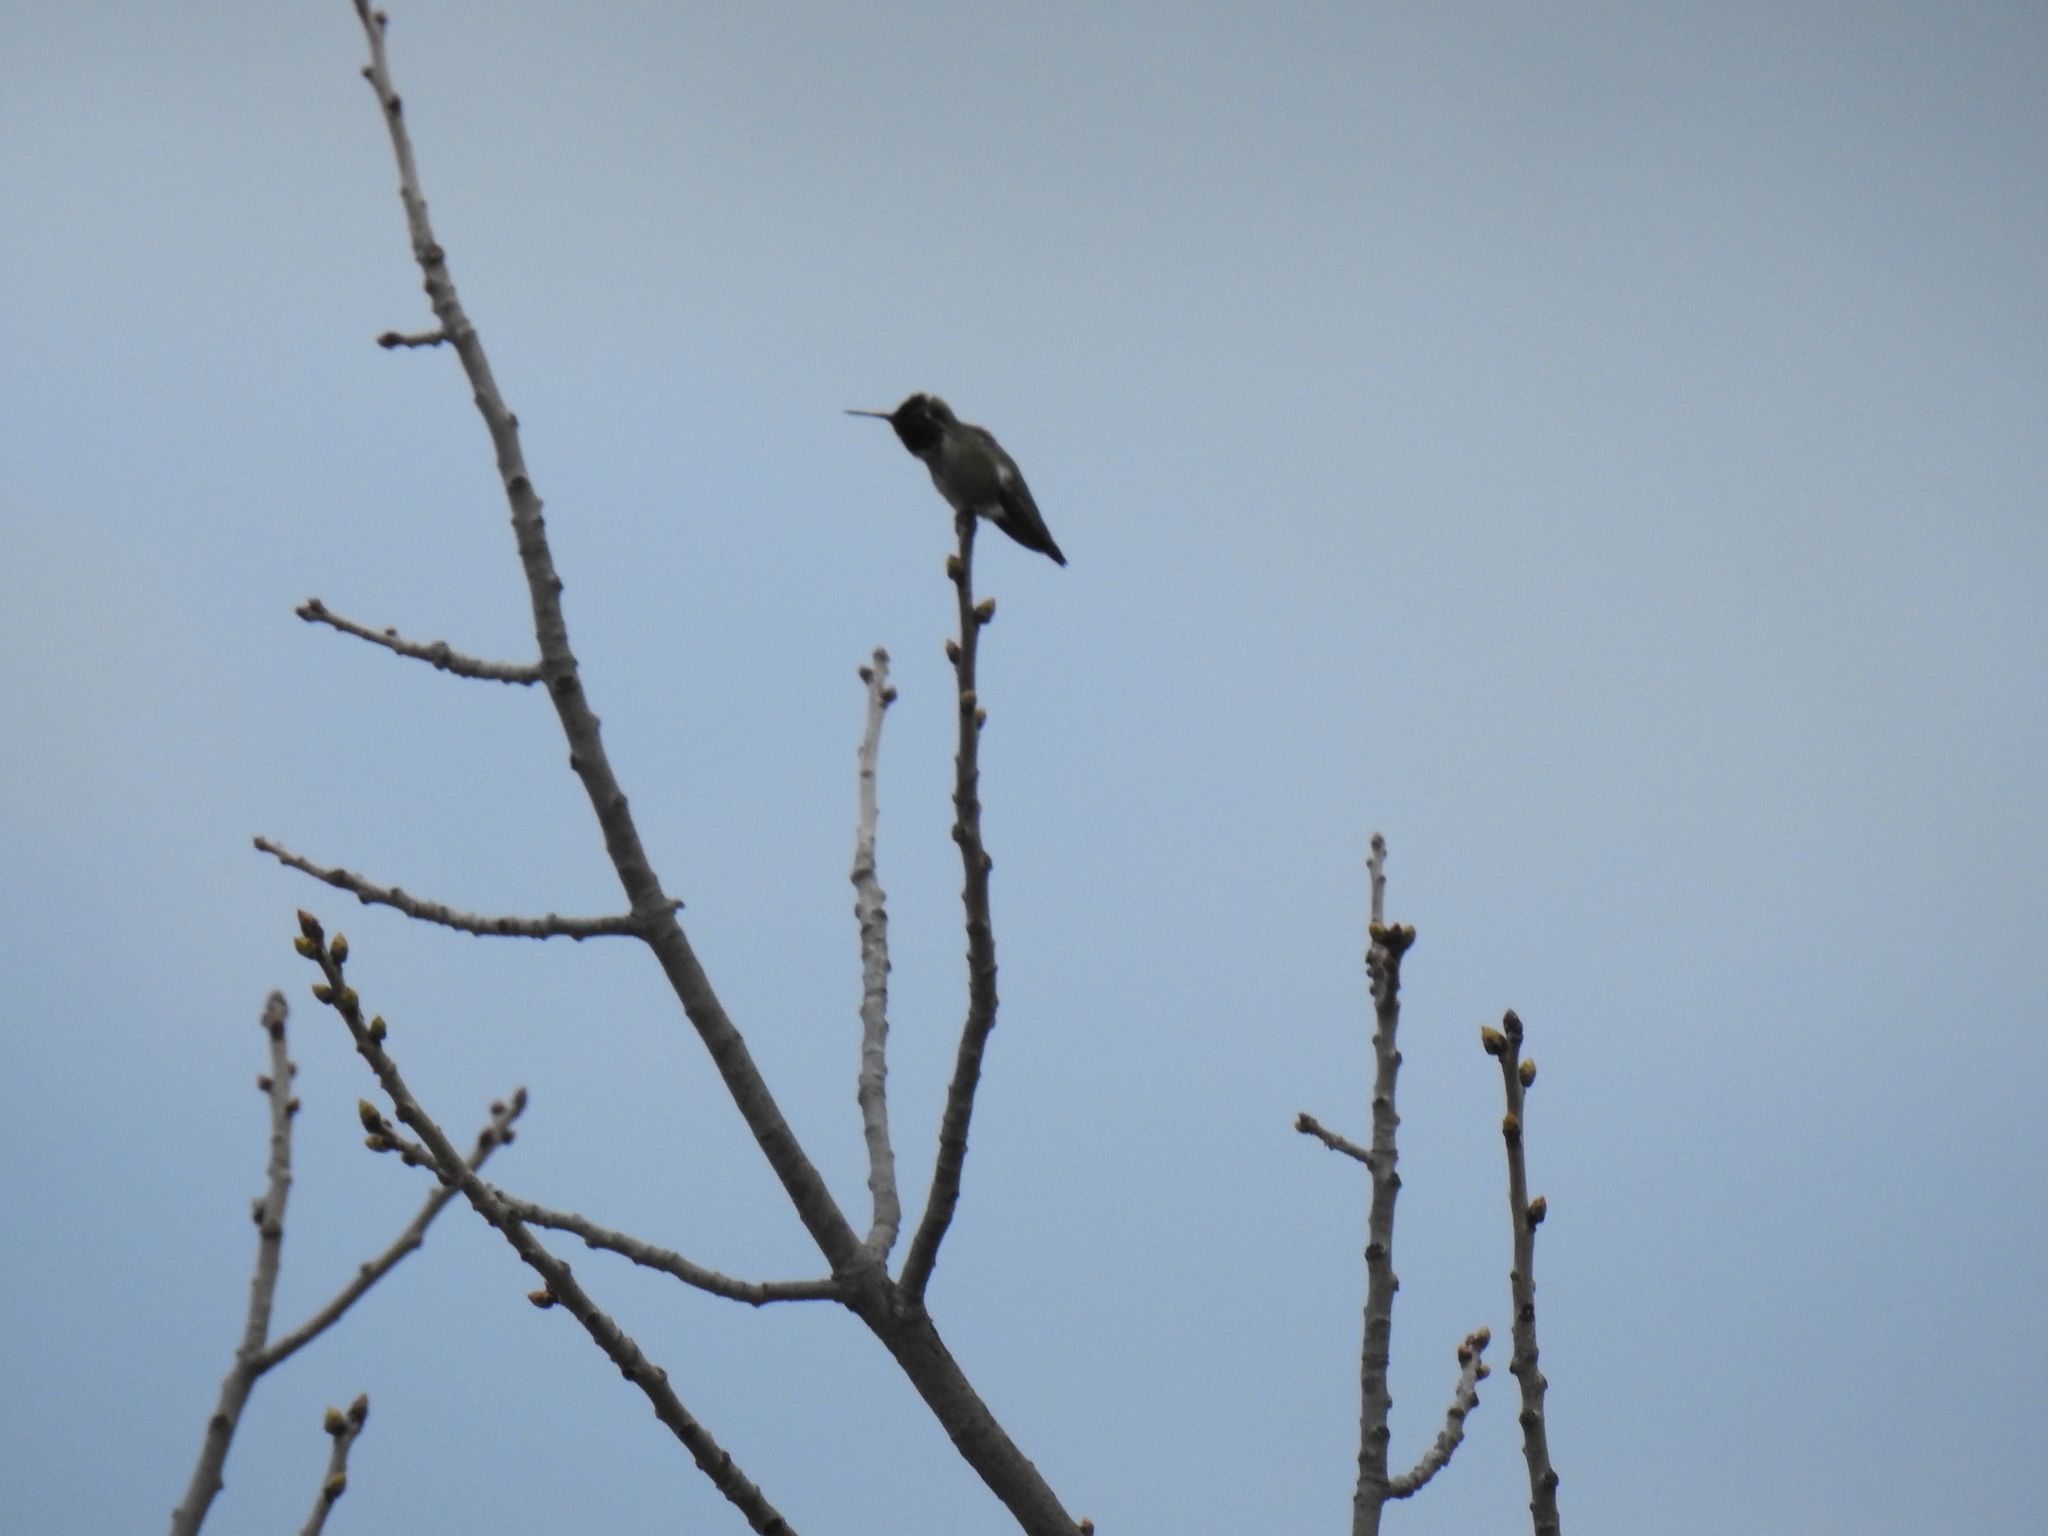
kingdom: Animalia
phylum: Chordata
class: Aves
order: Apodiformes
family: Trochilidae
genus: Calypte
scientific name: Calypte anna
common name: Anna's hummingbird
